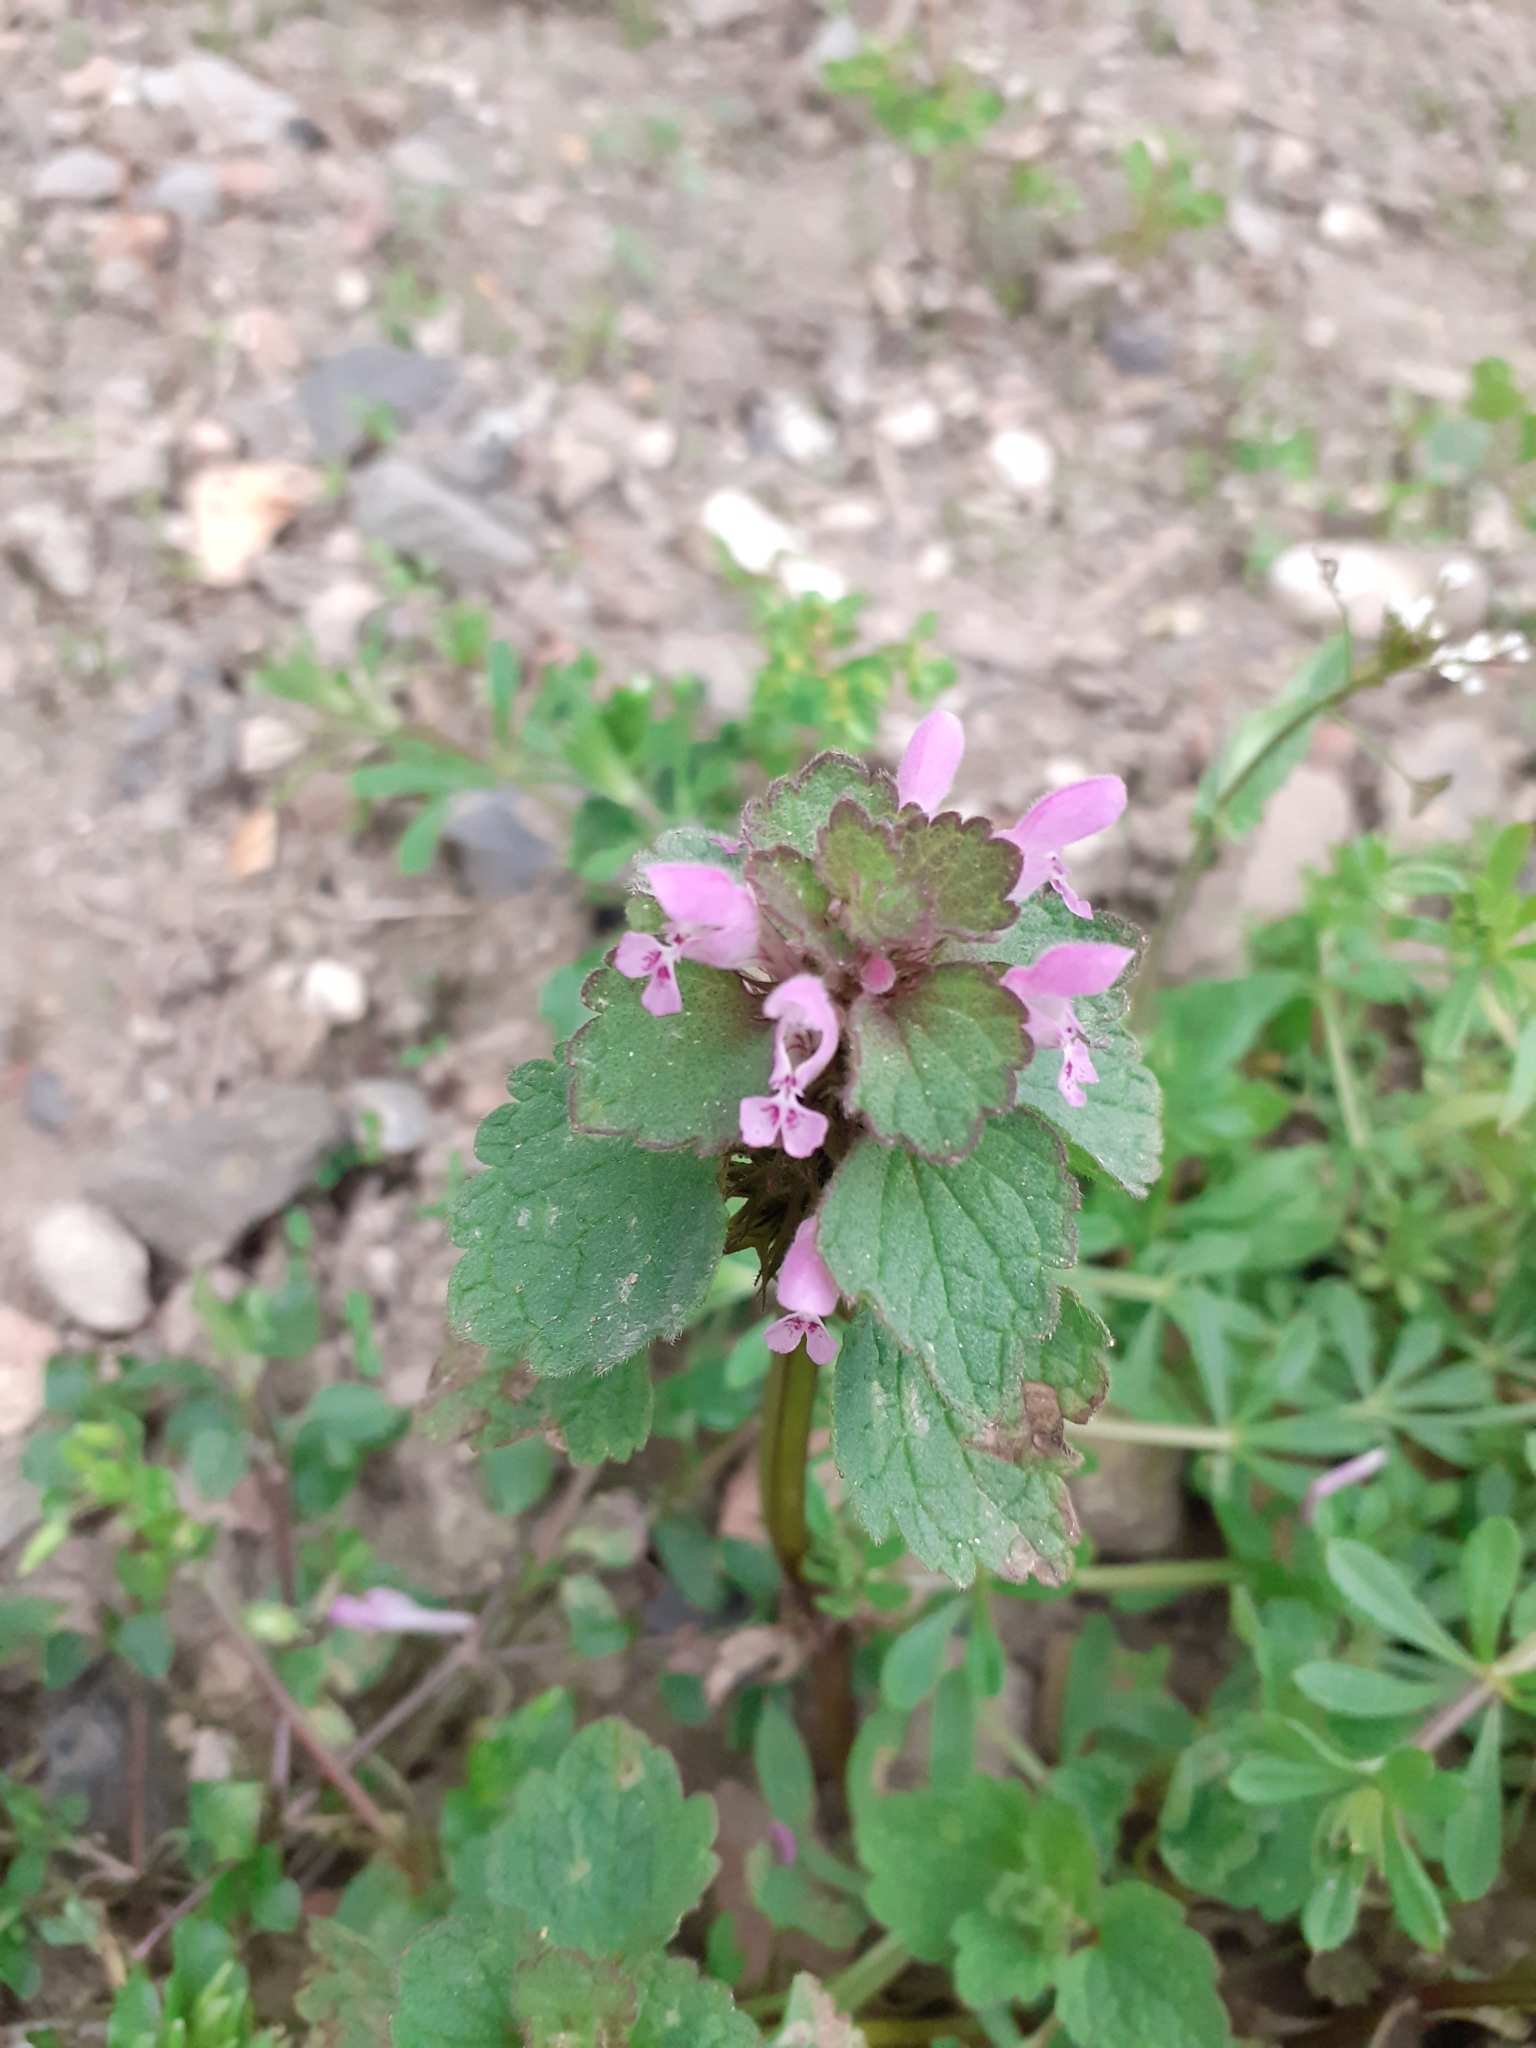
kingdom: Plantae
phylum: Tracheophyta
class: Magnoliopsida
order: Lamiales
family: Lamiaceae
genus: Lamium
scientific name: Lamium purpureum
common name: Red dead-nettle
